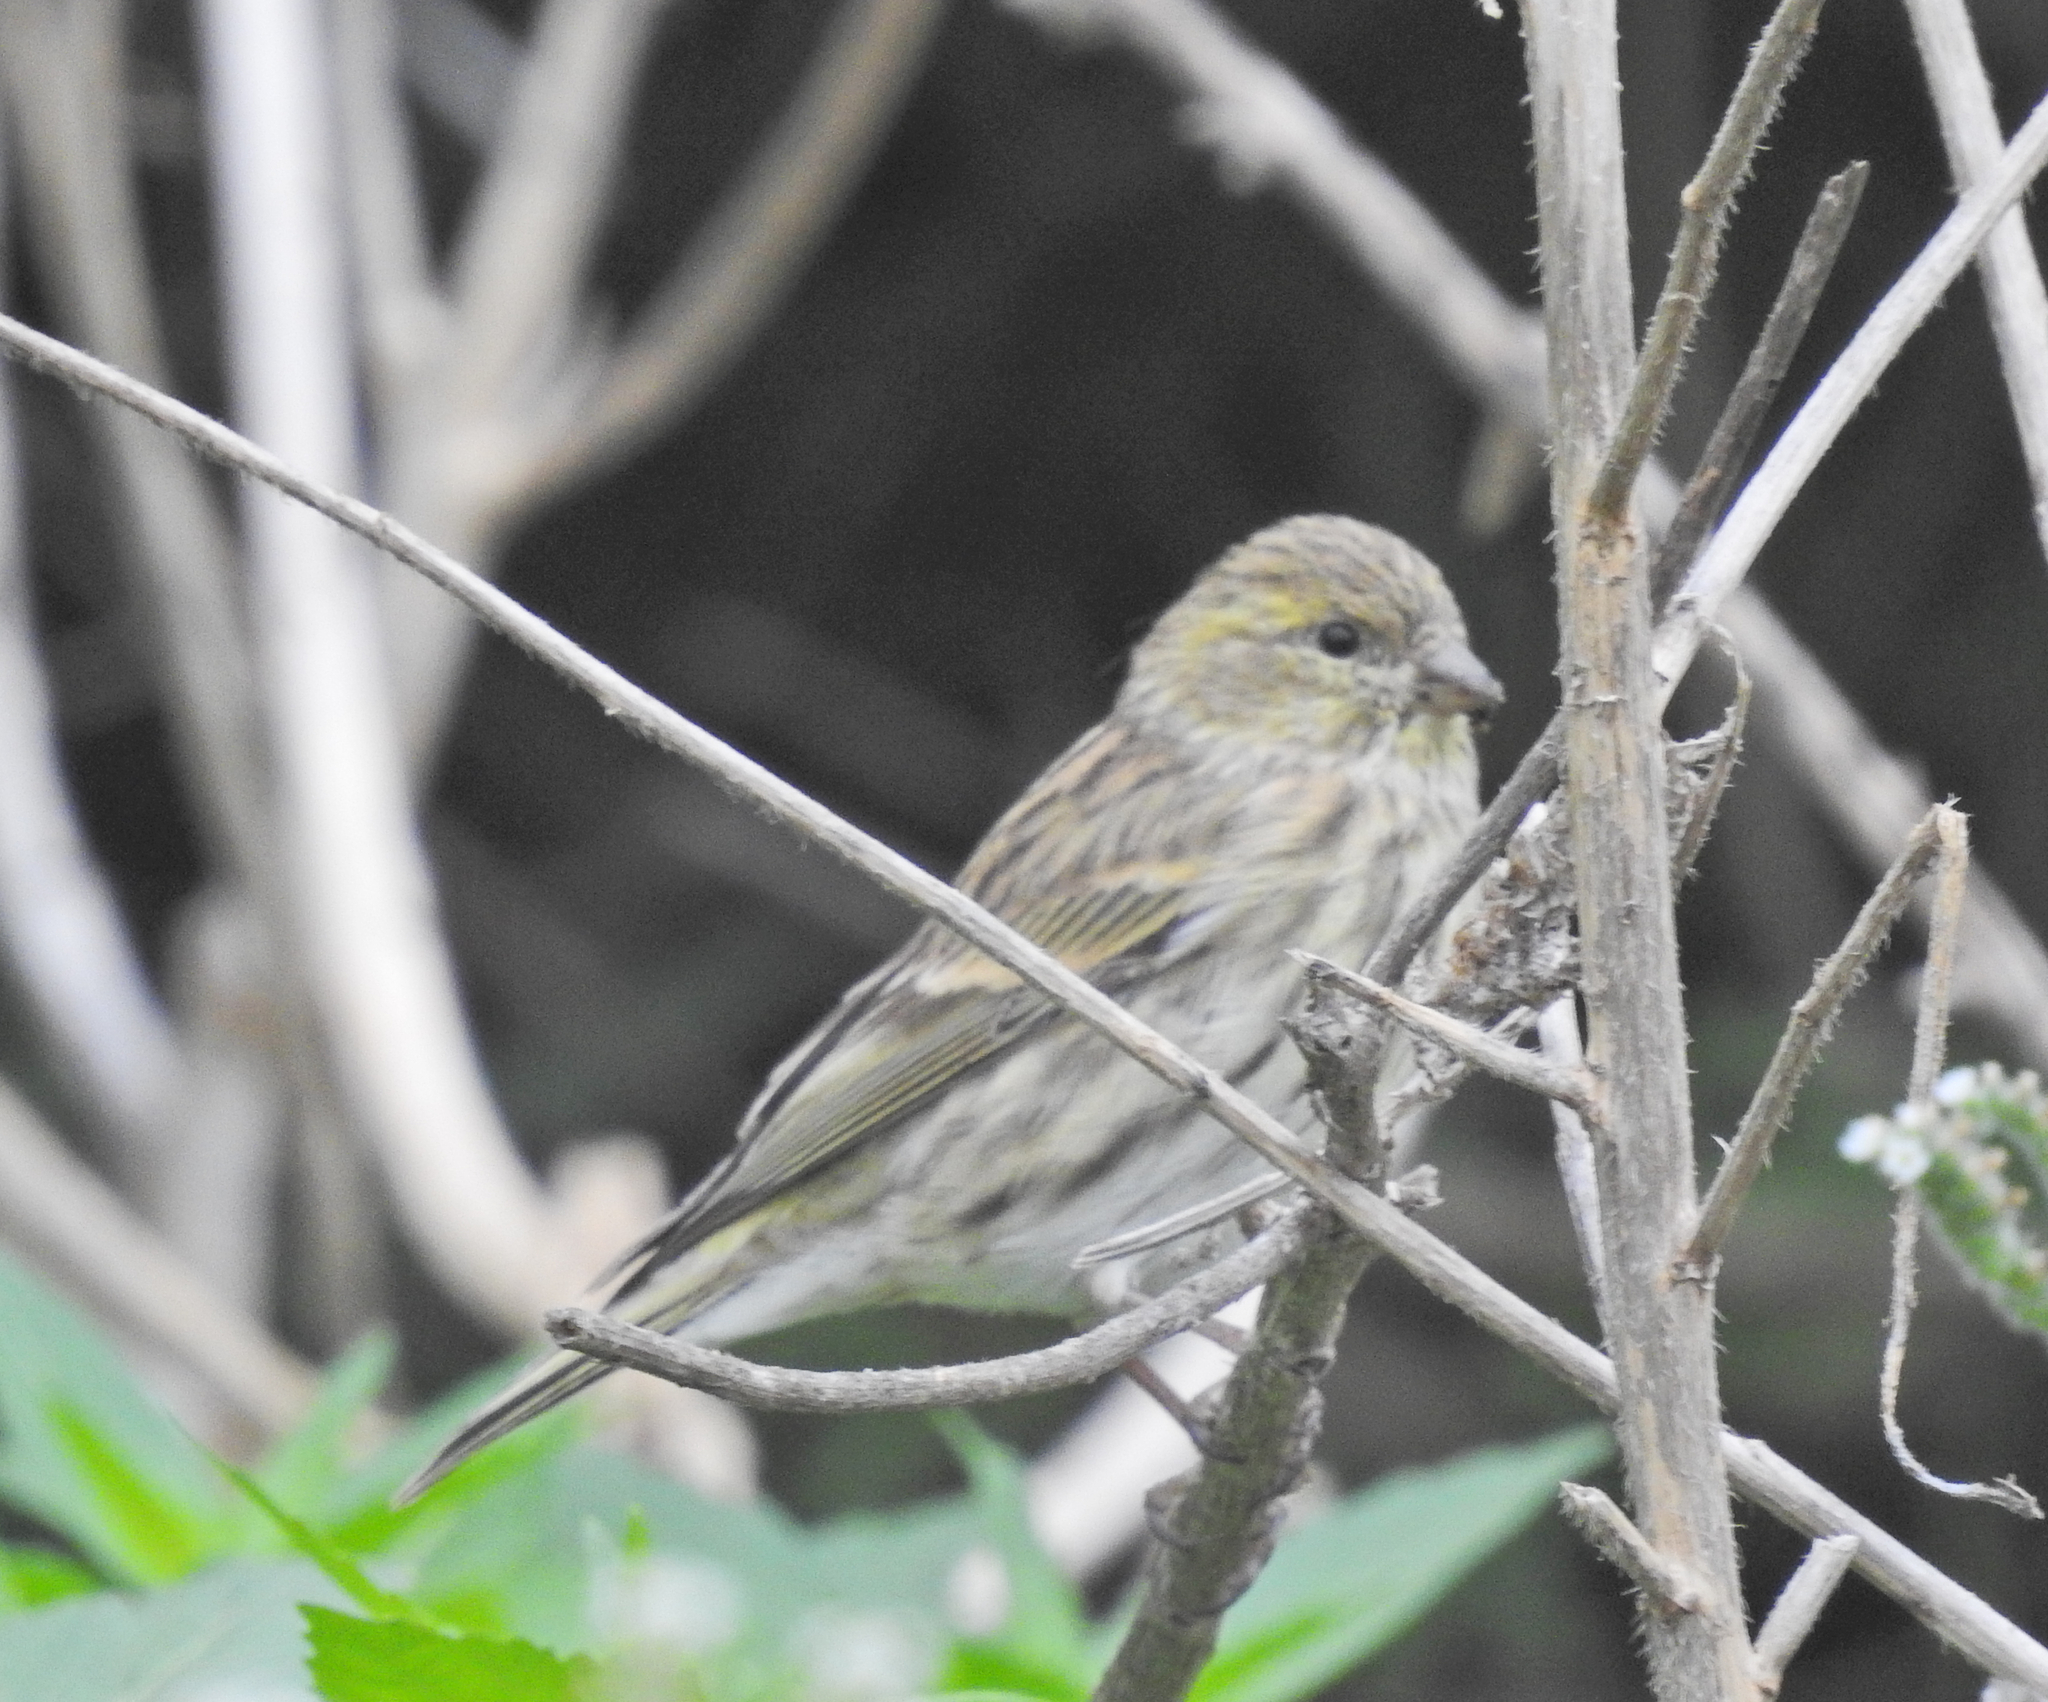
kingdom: Animalia
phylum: Chordata
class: Aves
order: Passeriformes
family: Fringillidae
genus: Serinus
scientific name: Serinus serinus
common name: European serin
